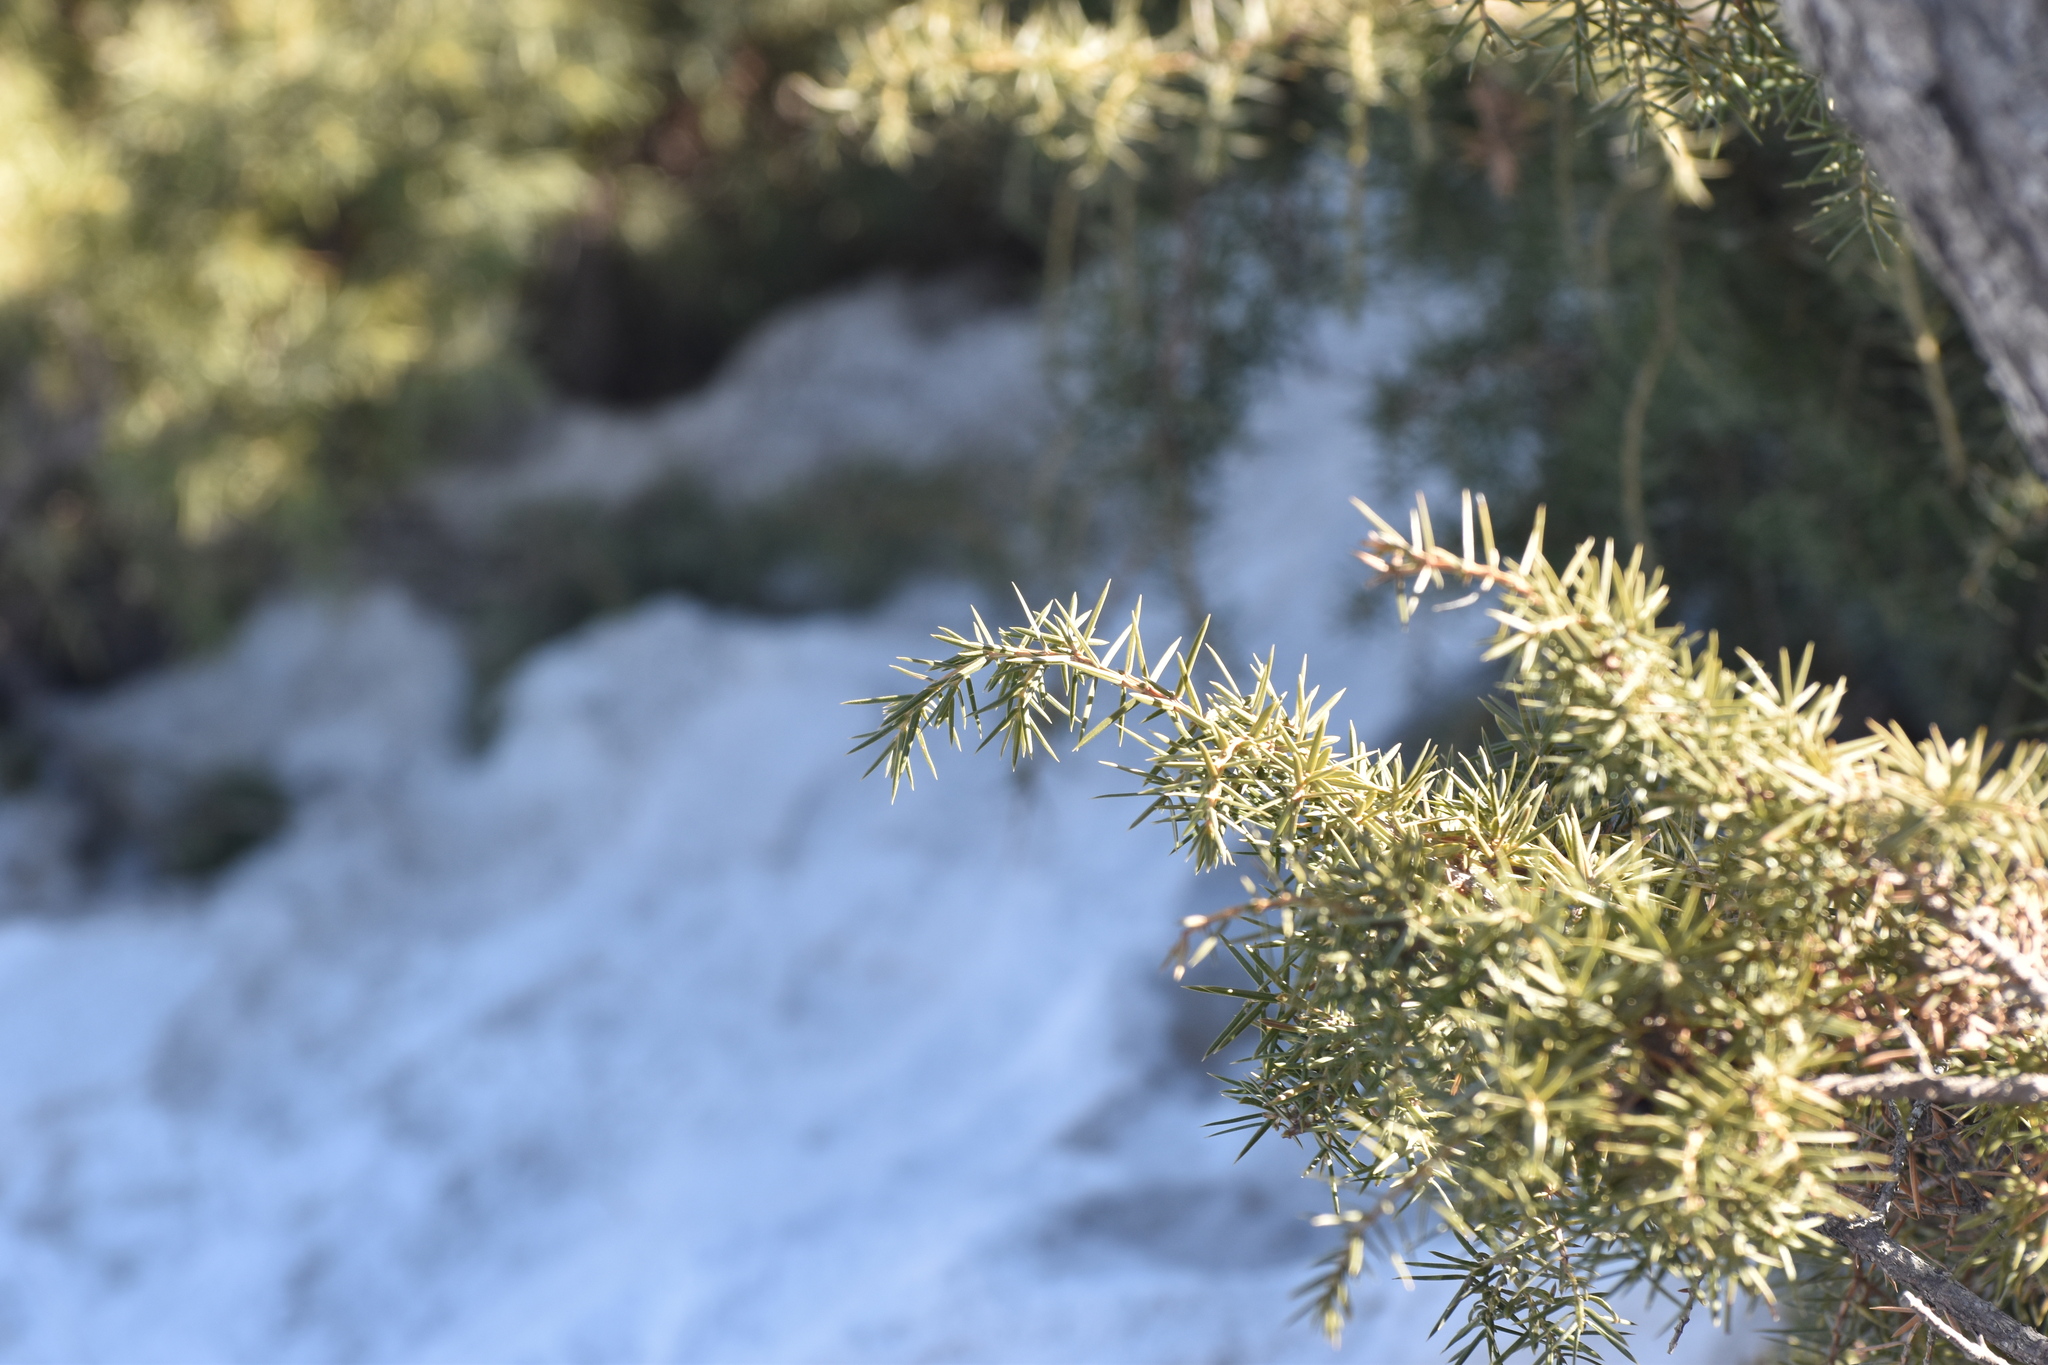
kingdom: Plantae
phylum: Tracheophyta
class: Pinopsida
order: Pinales
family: Cupressaceae
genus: Juniperus
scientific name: Juniperus communis
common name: Common juniper
